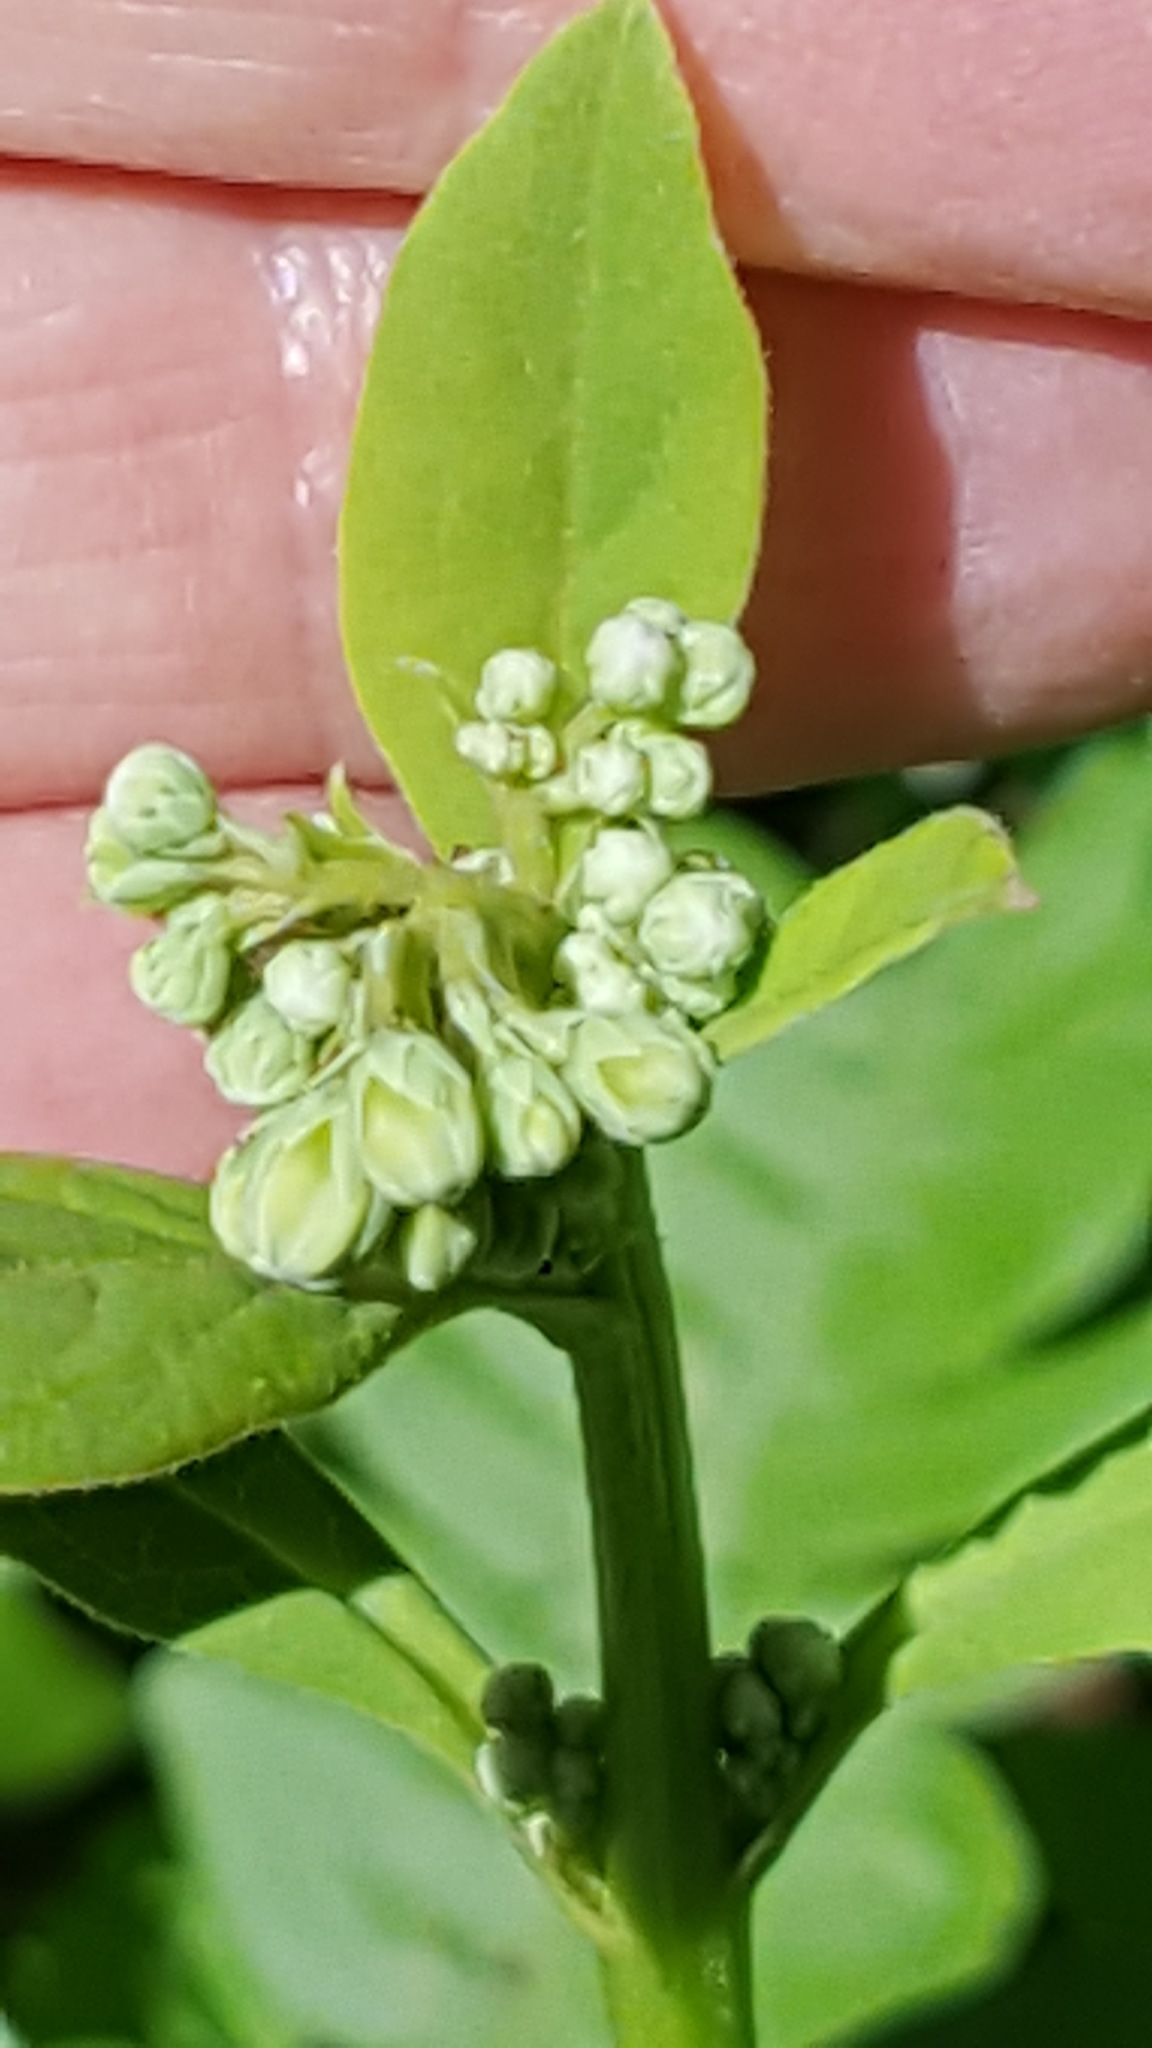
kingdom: Plantae
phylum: Tracheophyta
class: Magnoliopsida
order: Asterales
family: Asteraceae
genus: Nabalus
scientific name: Nabalus albus
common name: White rattlesnakeroot
